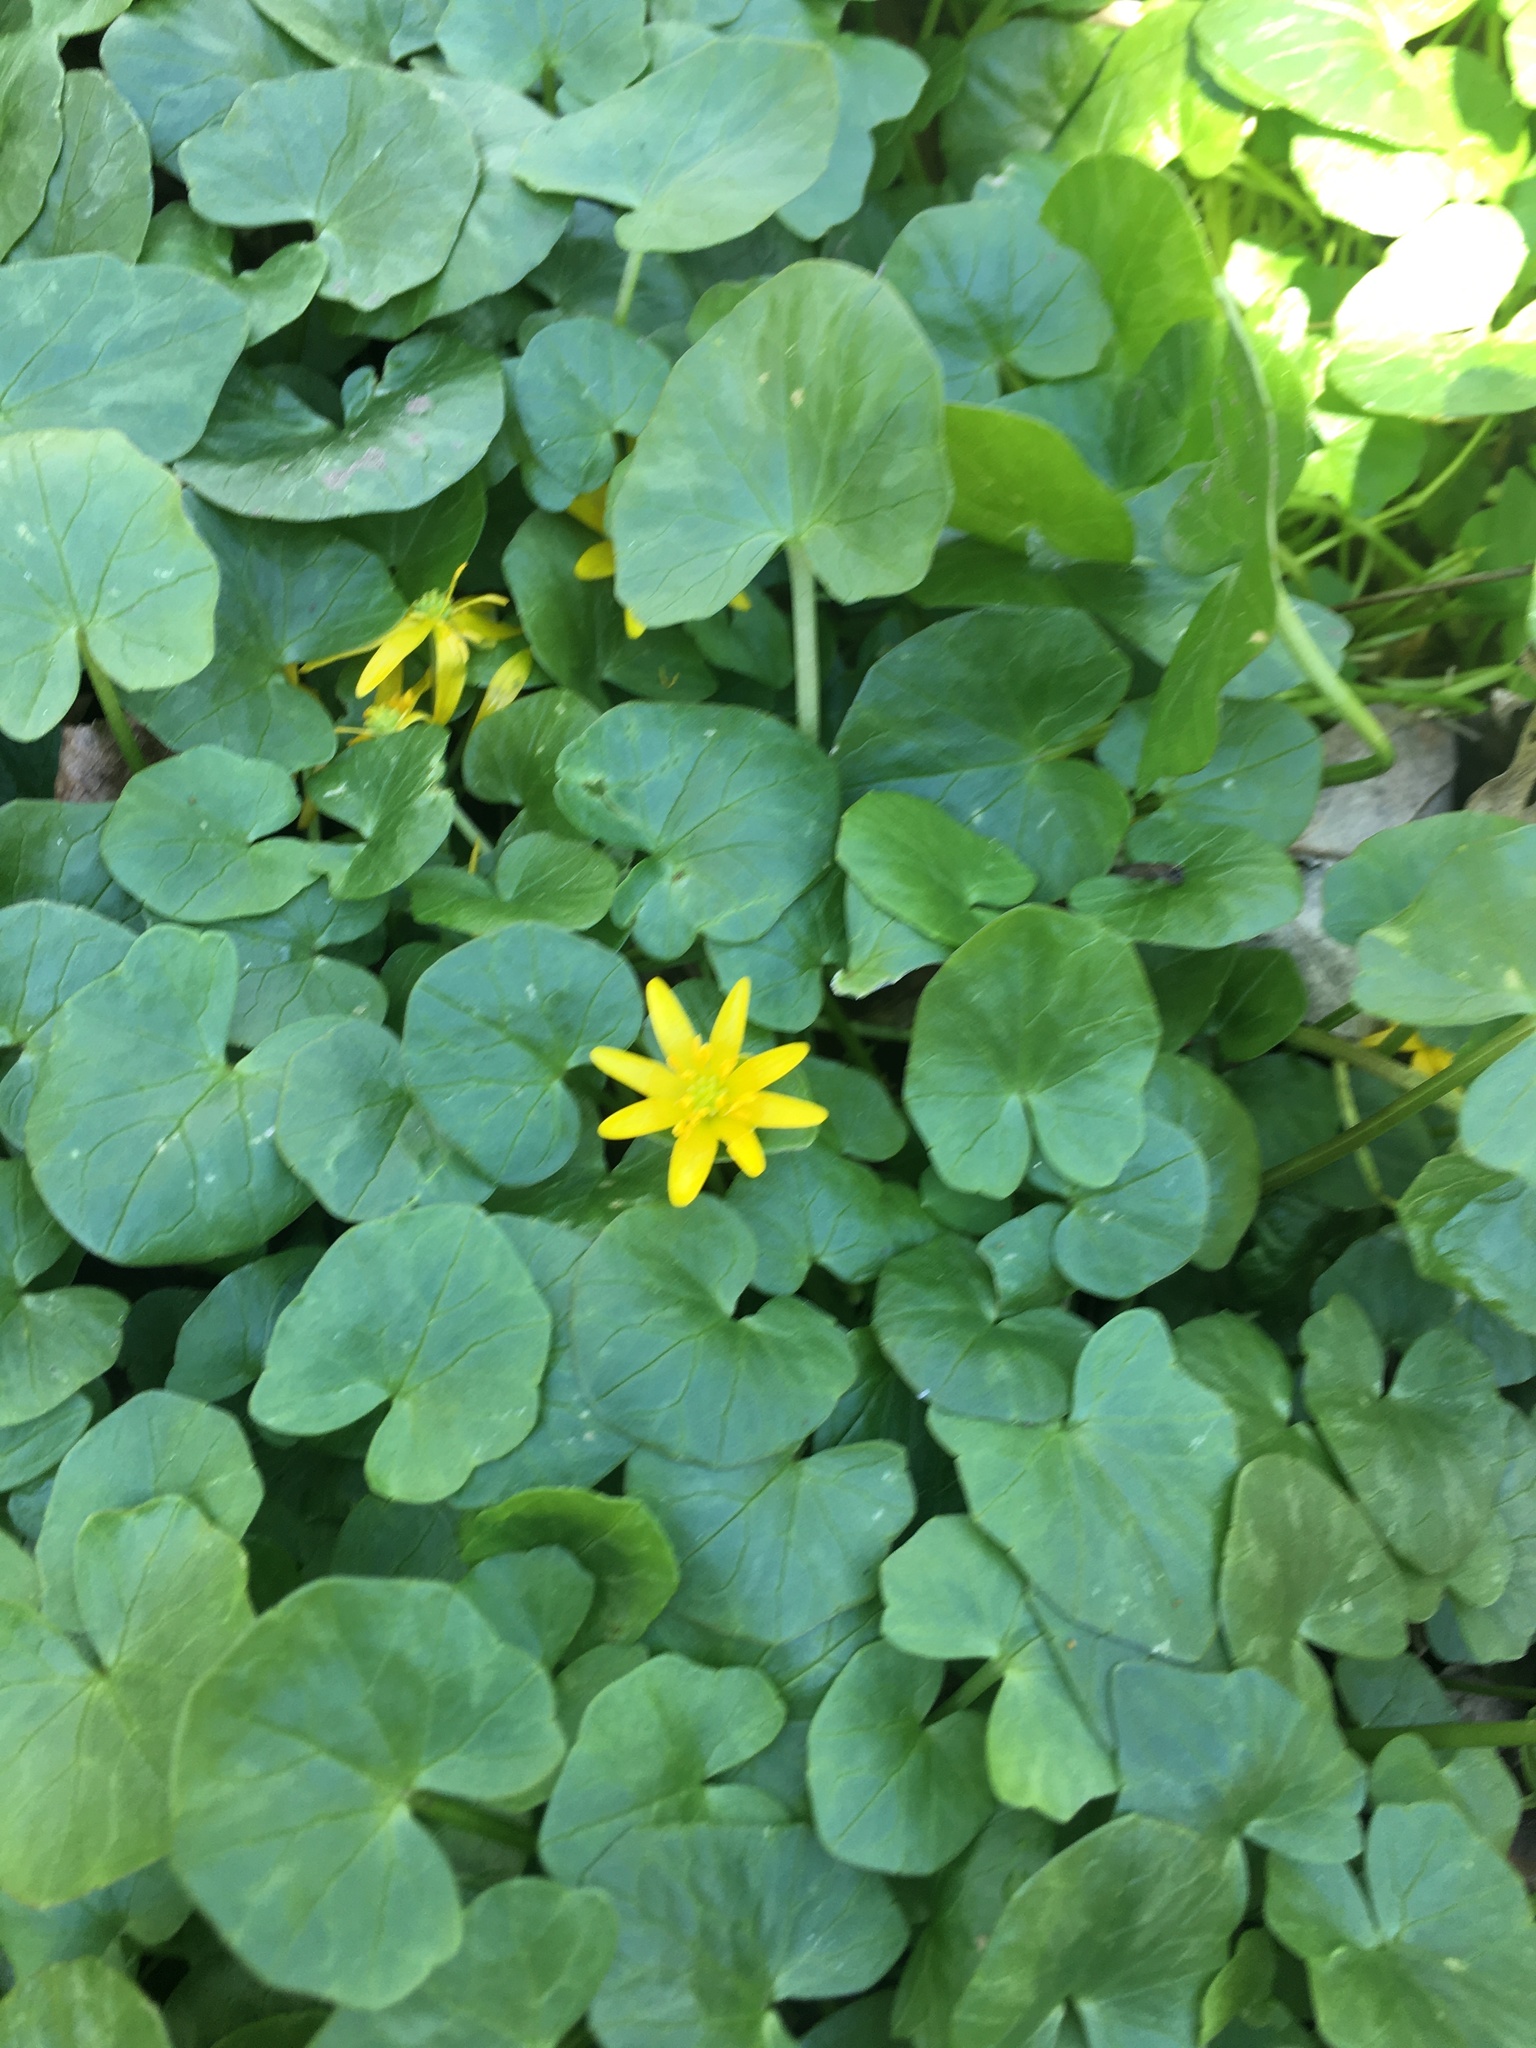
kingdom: Plantae
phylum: Tracheophyta
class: Magnoliopsida
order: Ranunculales
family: Ranunculaceae
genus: Ficaria
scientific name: Ficaria verna
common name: Lesser celandine
